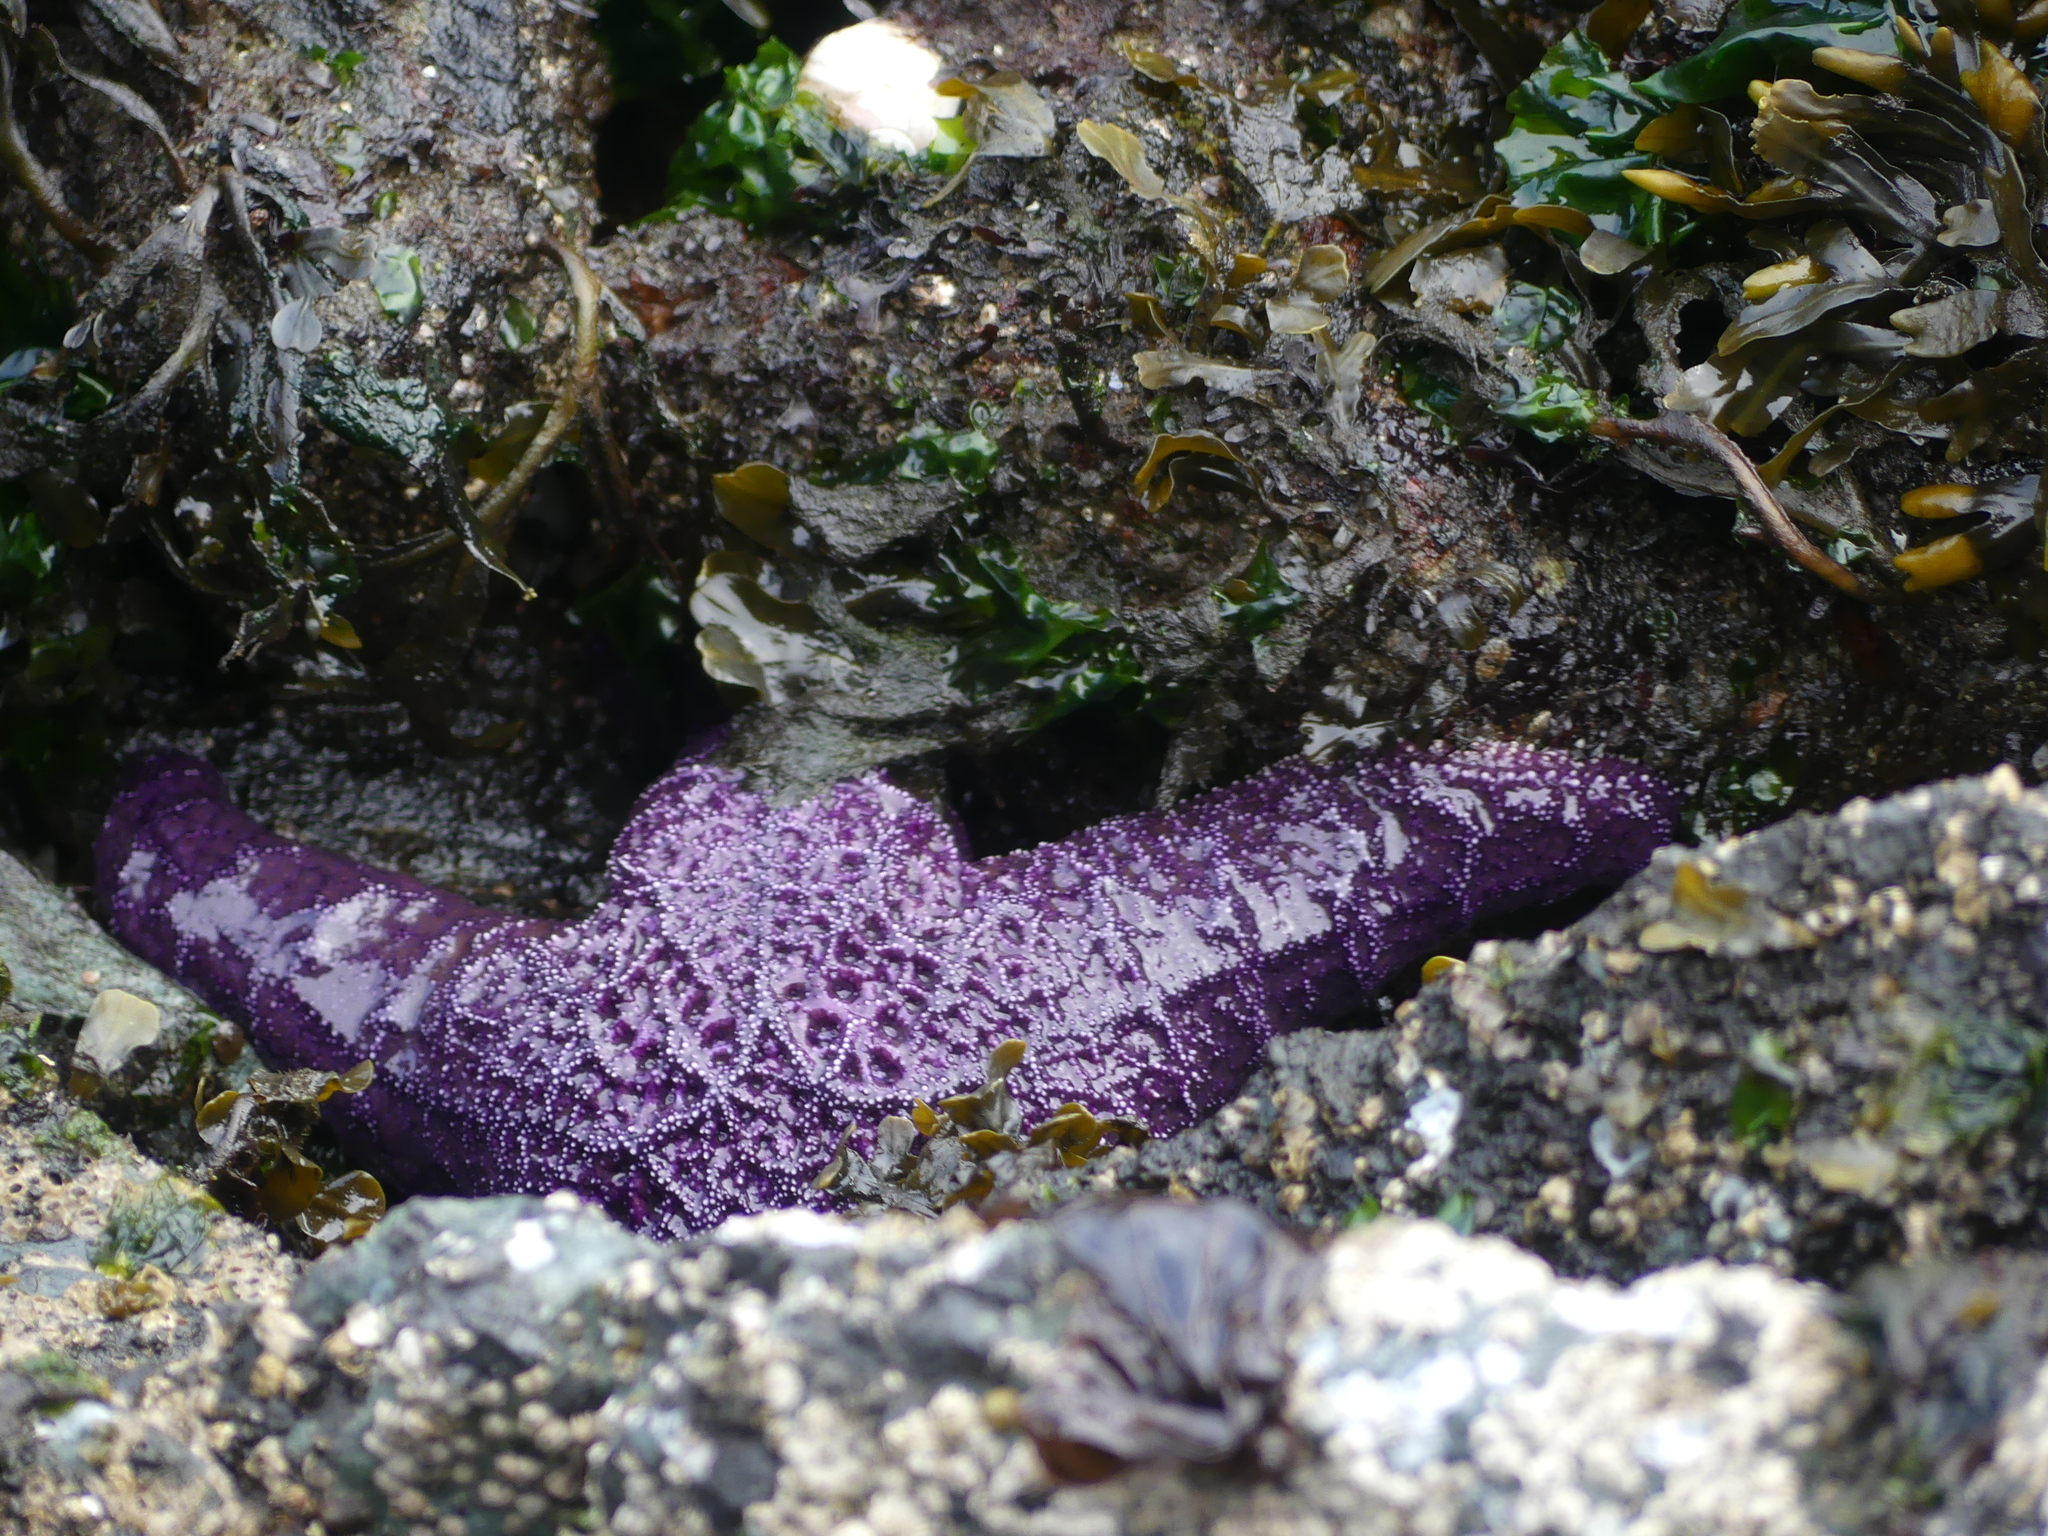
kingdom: Animalia
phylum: Echinodermata
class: Asteroidea
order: Forcipulatida
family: Asteriidae
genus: Pisaster
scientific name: Pisaster ochraceus
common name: Ochre stars
